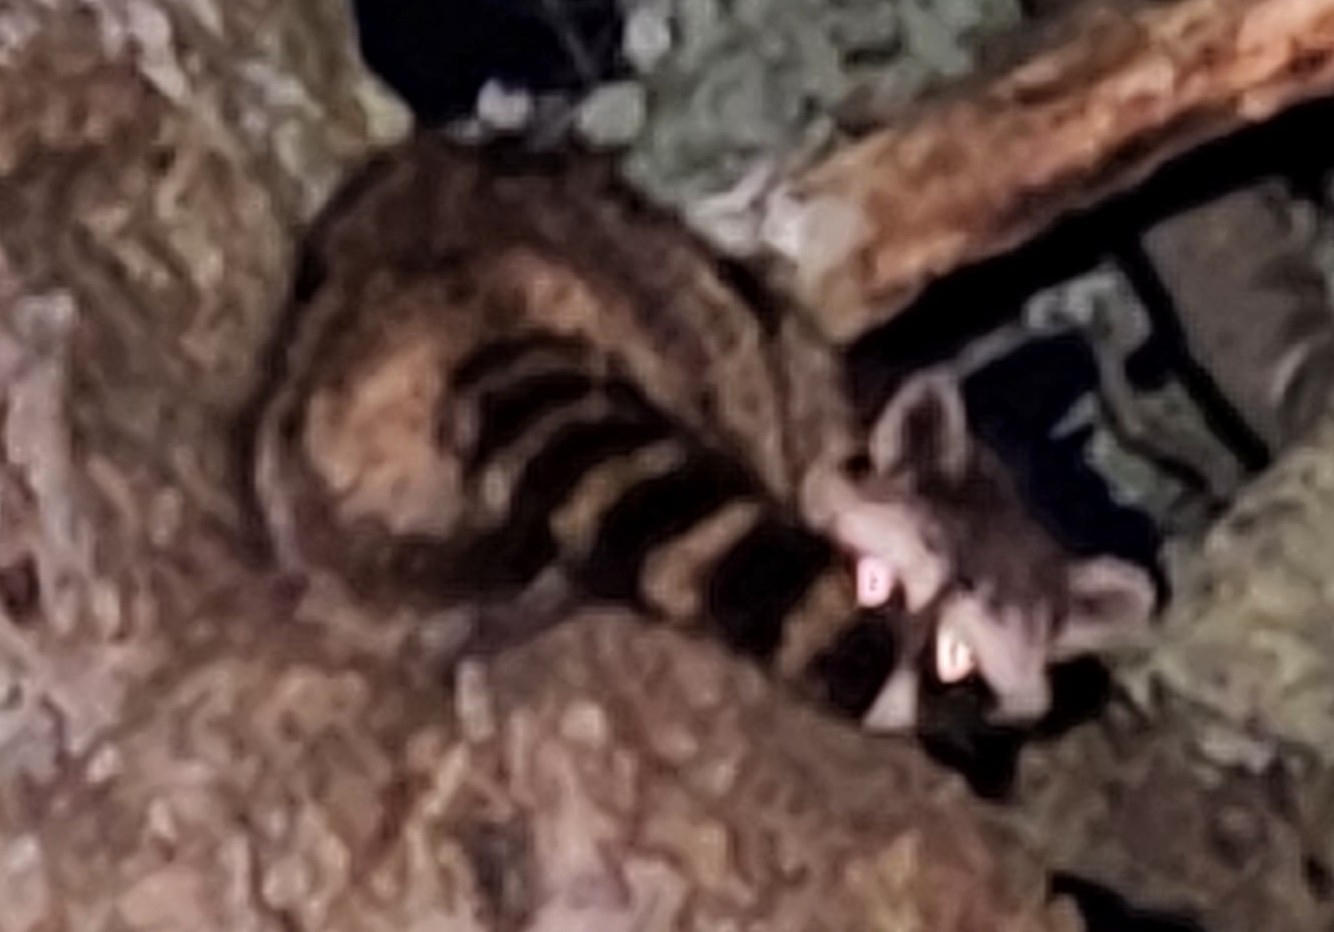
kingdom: Animalia
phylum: Chordata
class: Mammalia
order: Carnivora
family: Procyonidae
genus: Procyon
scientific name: Procyon lotor
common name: Raccoon
